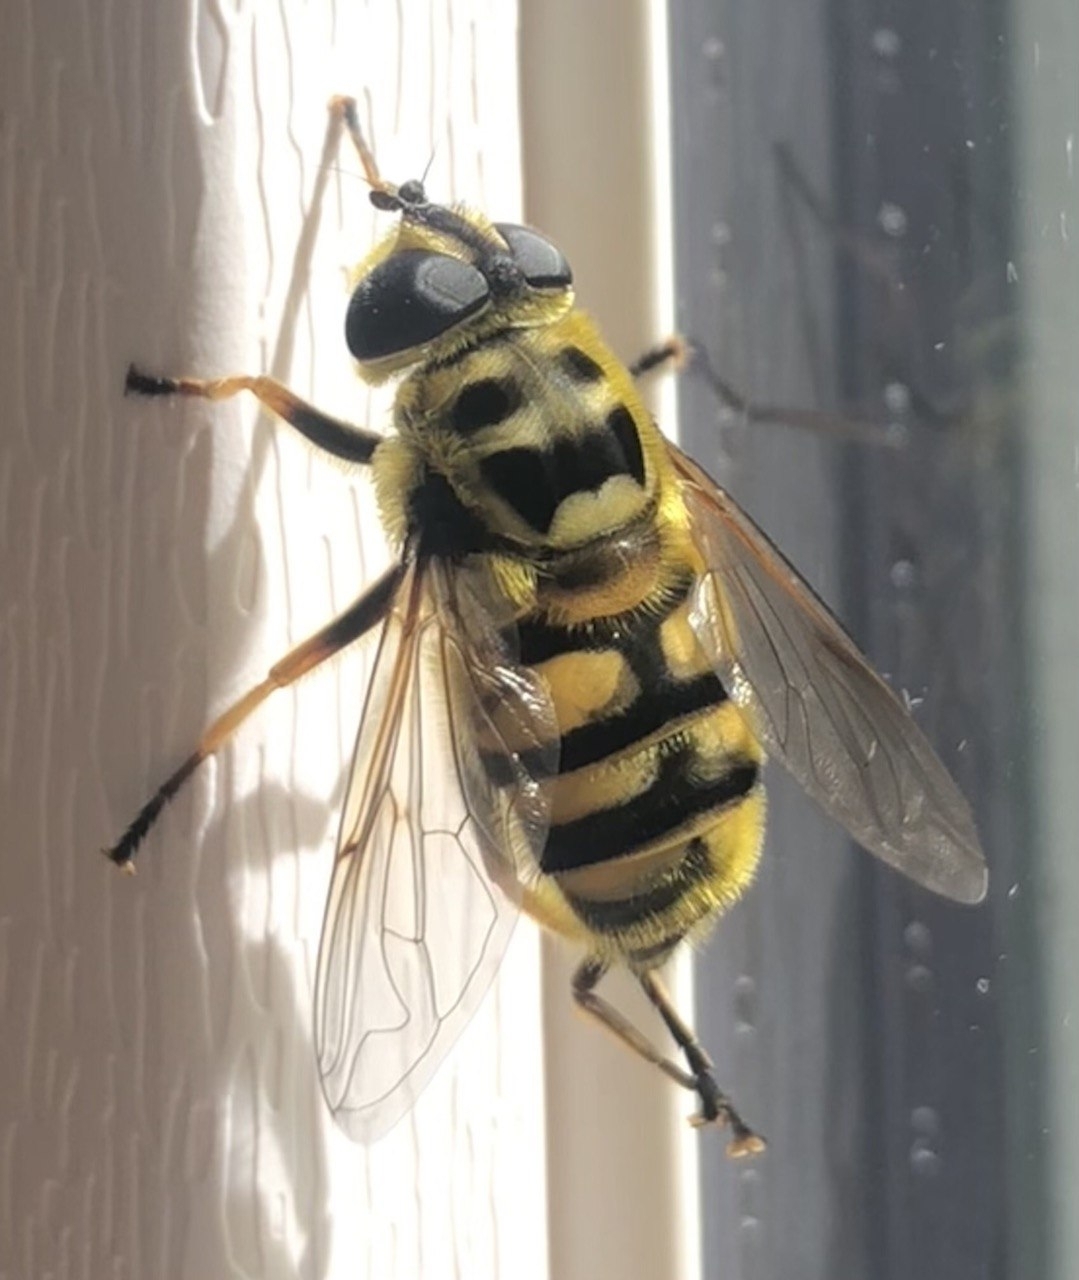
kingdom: Animalia
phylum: Arthropoda
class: Insecta
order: Diptera
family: Syrphidae
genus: Myathropa
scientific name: Myathropa florea
